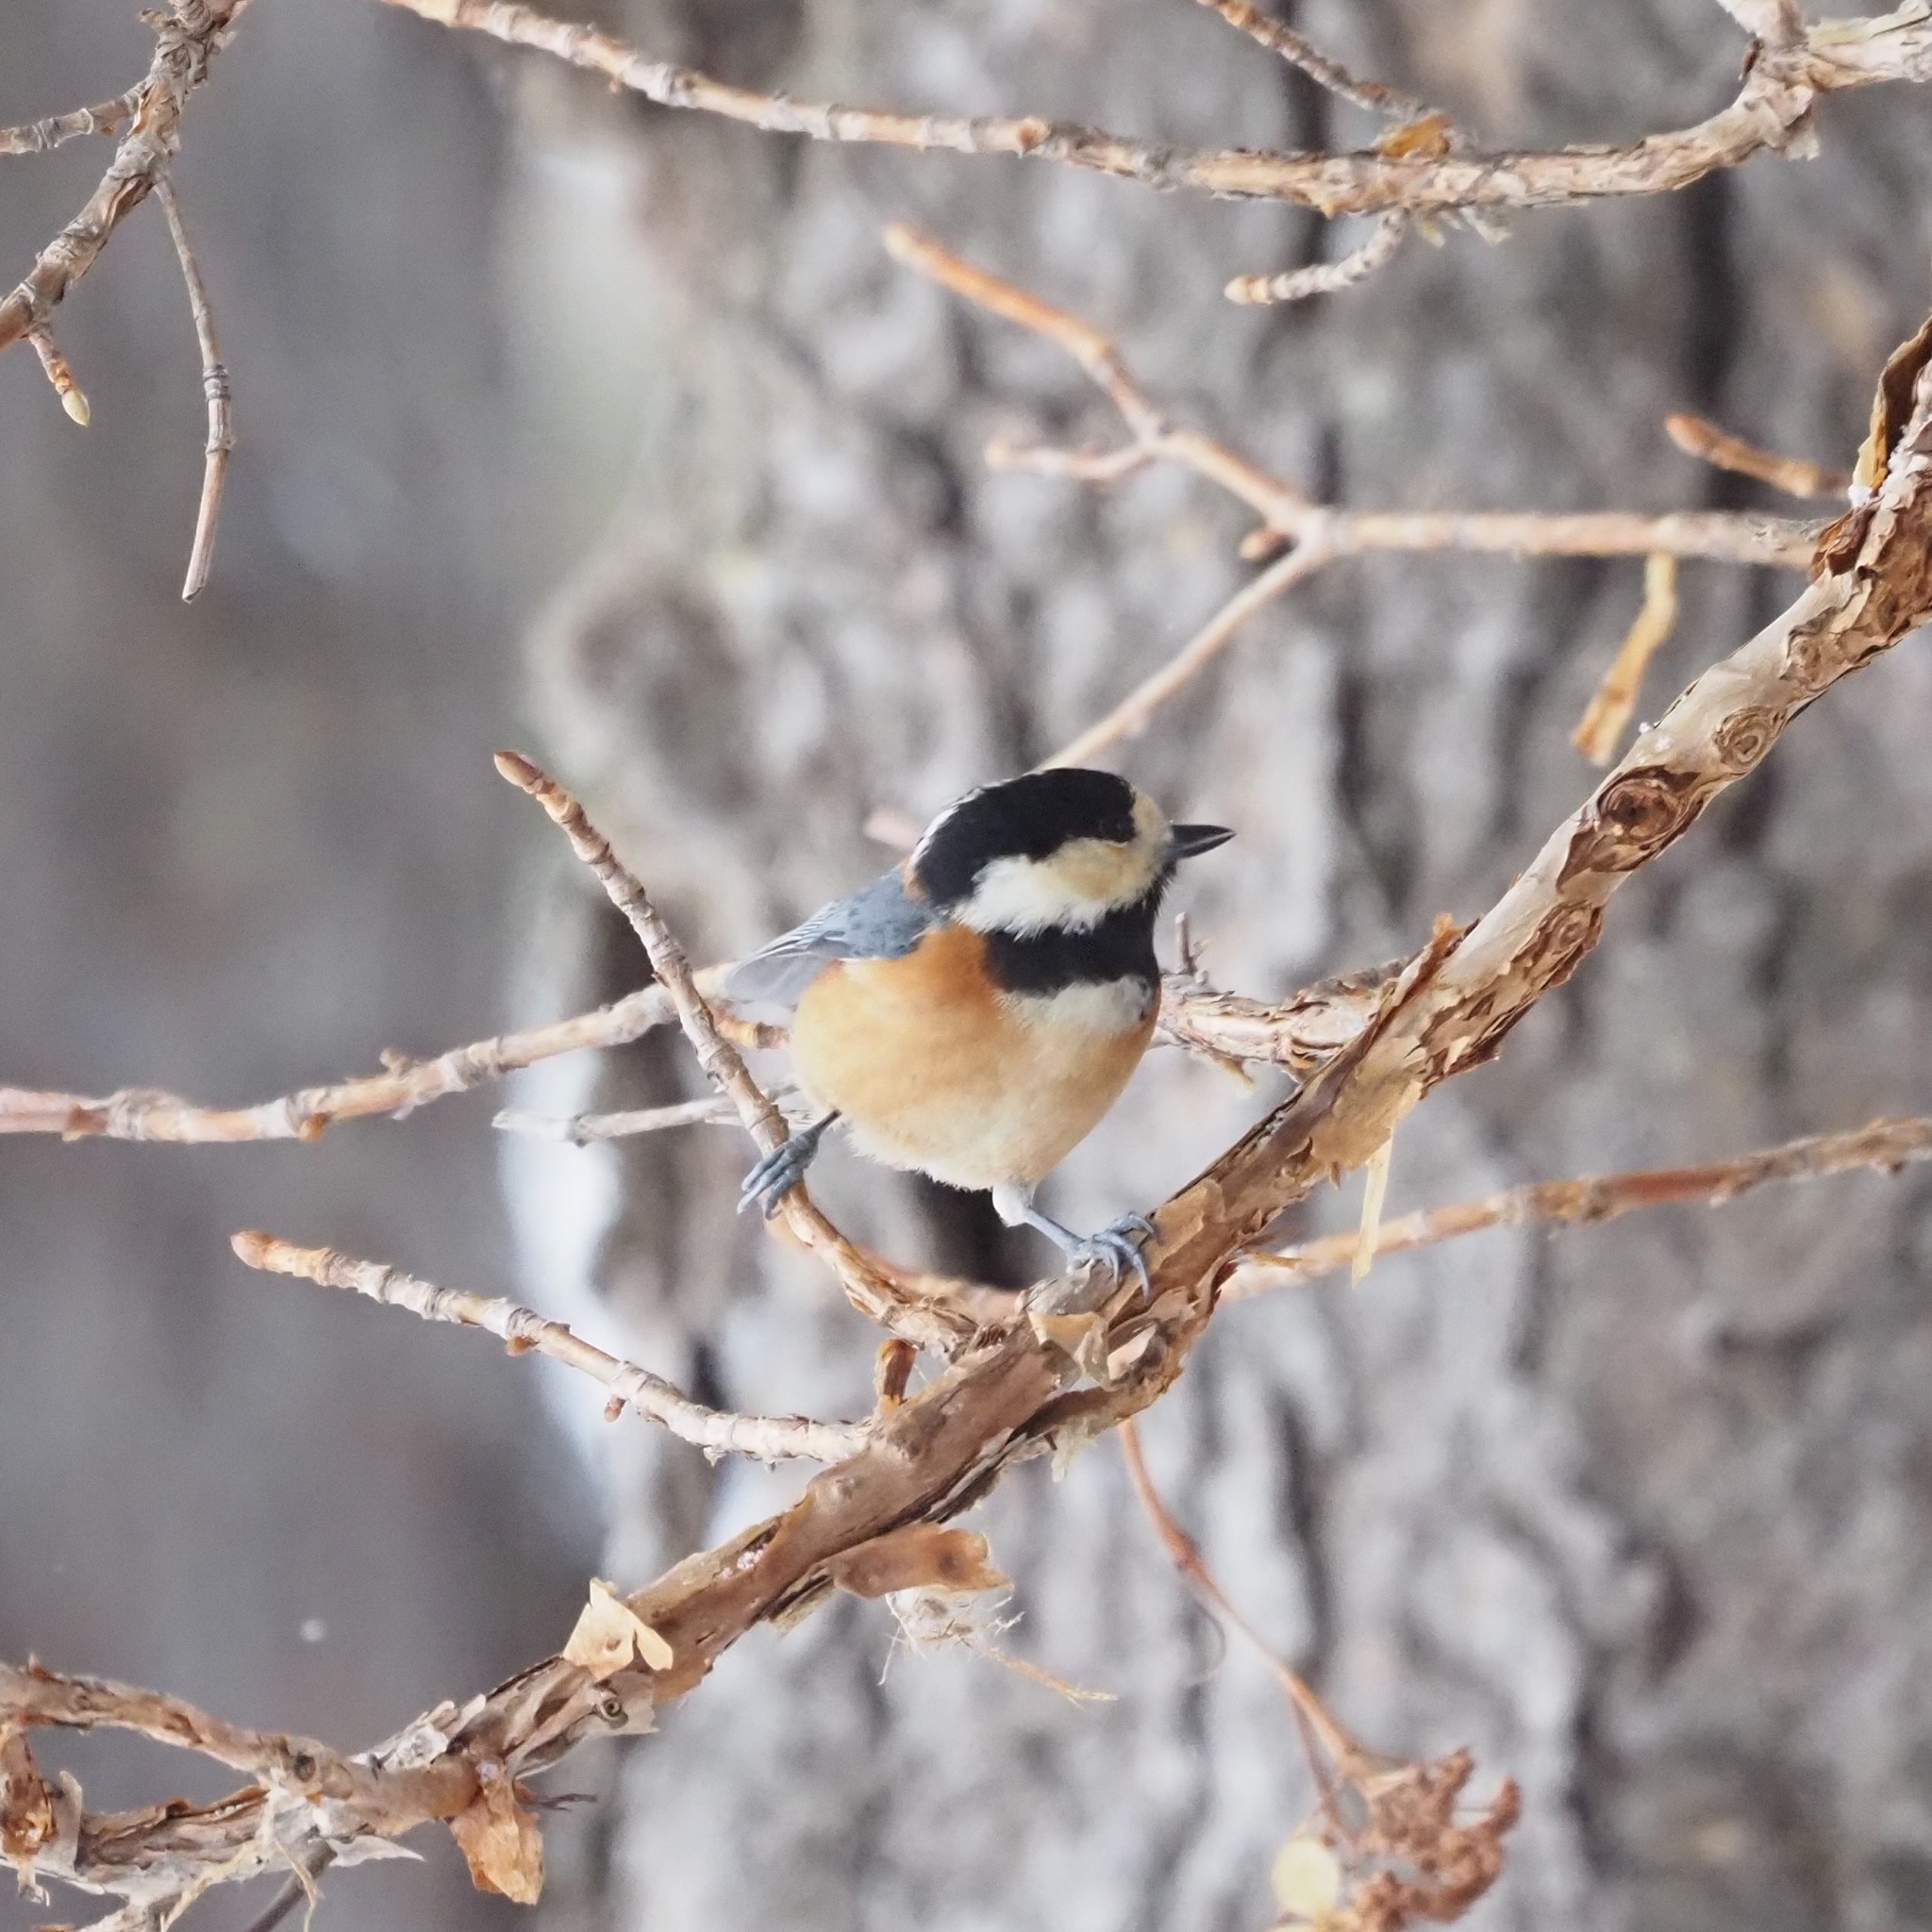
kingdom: Animalia
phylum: Chordata
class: Aves
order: Passeriformes
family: Paridae
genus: Poecile
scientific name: Poecile varius
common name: Varied tit
